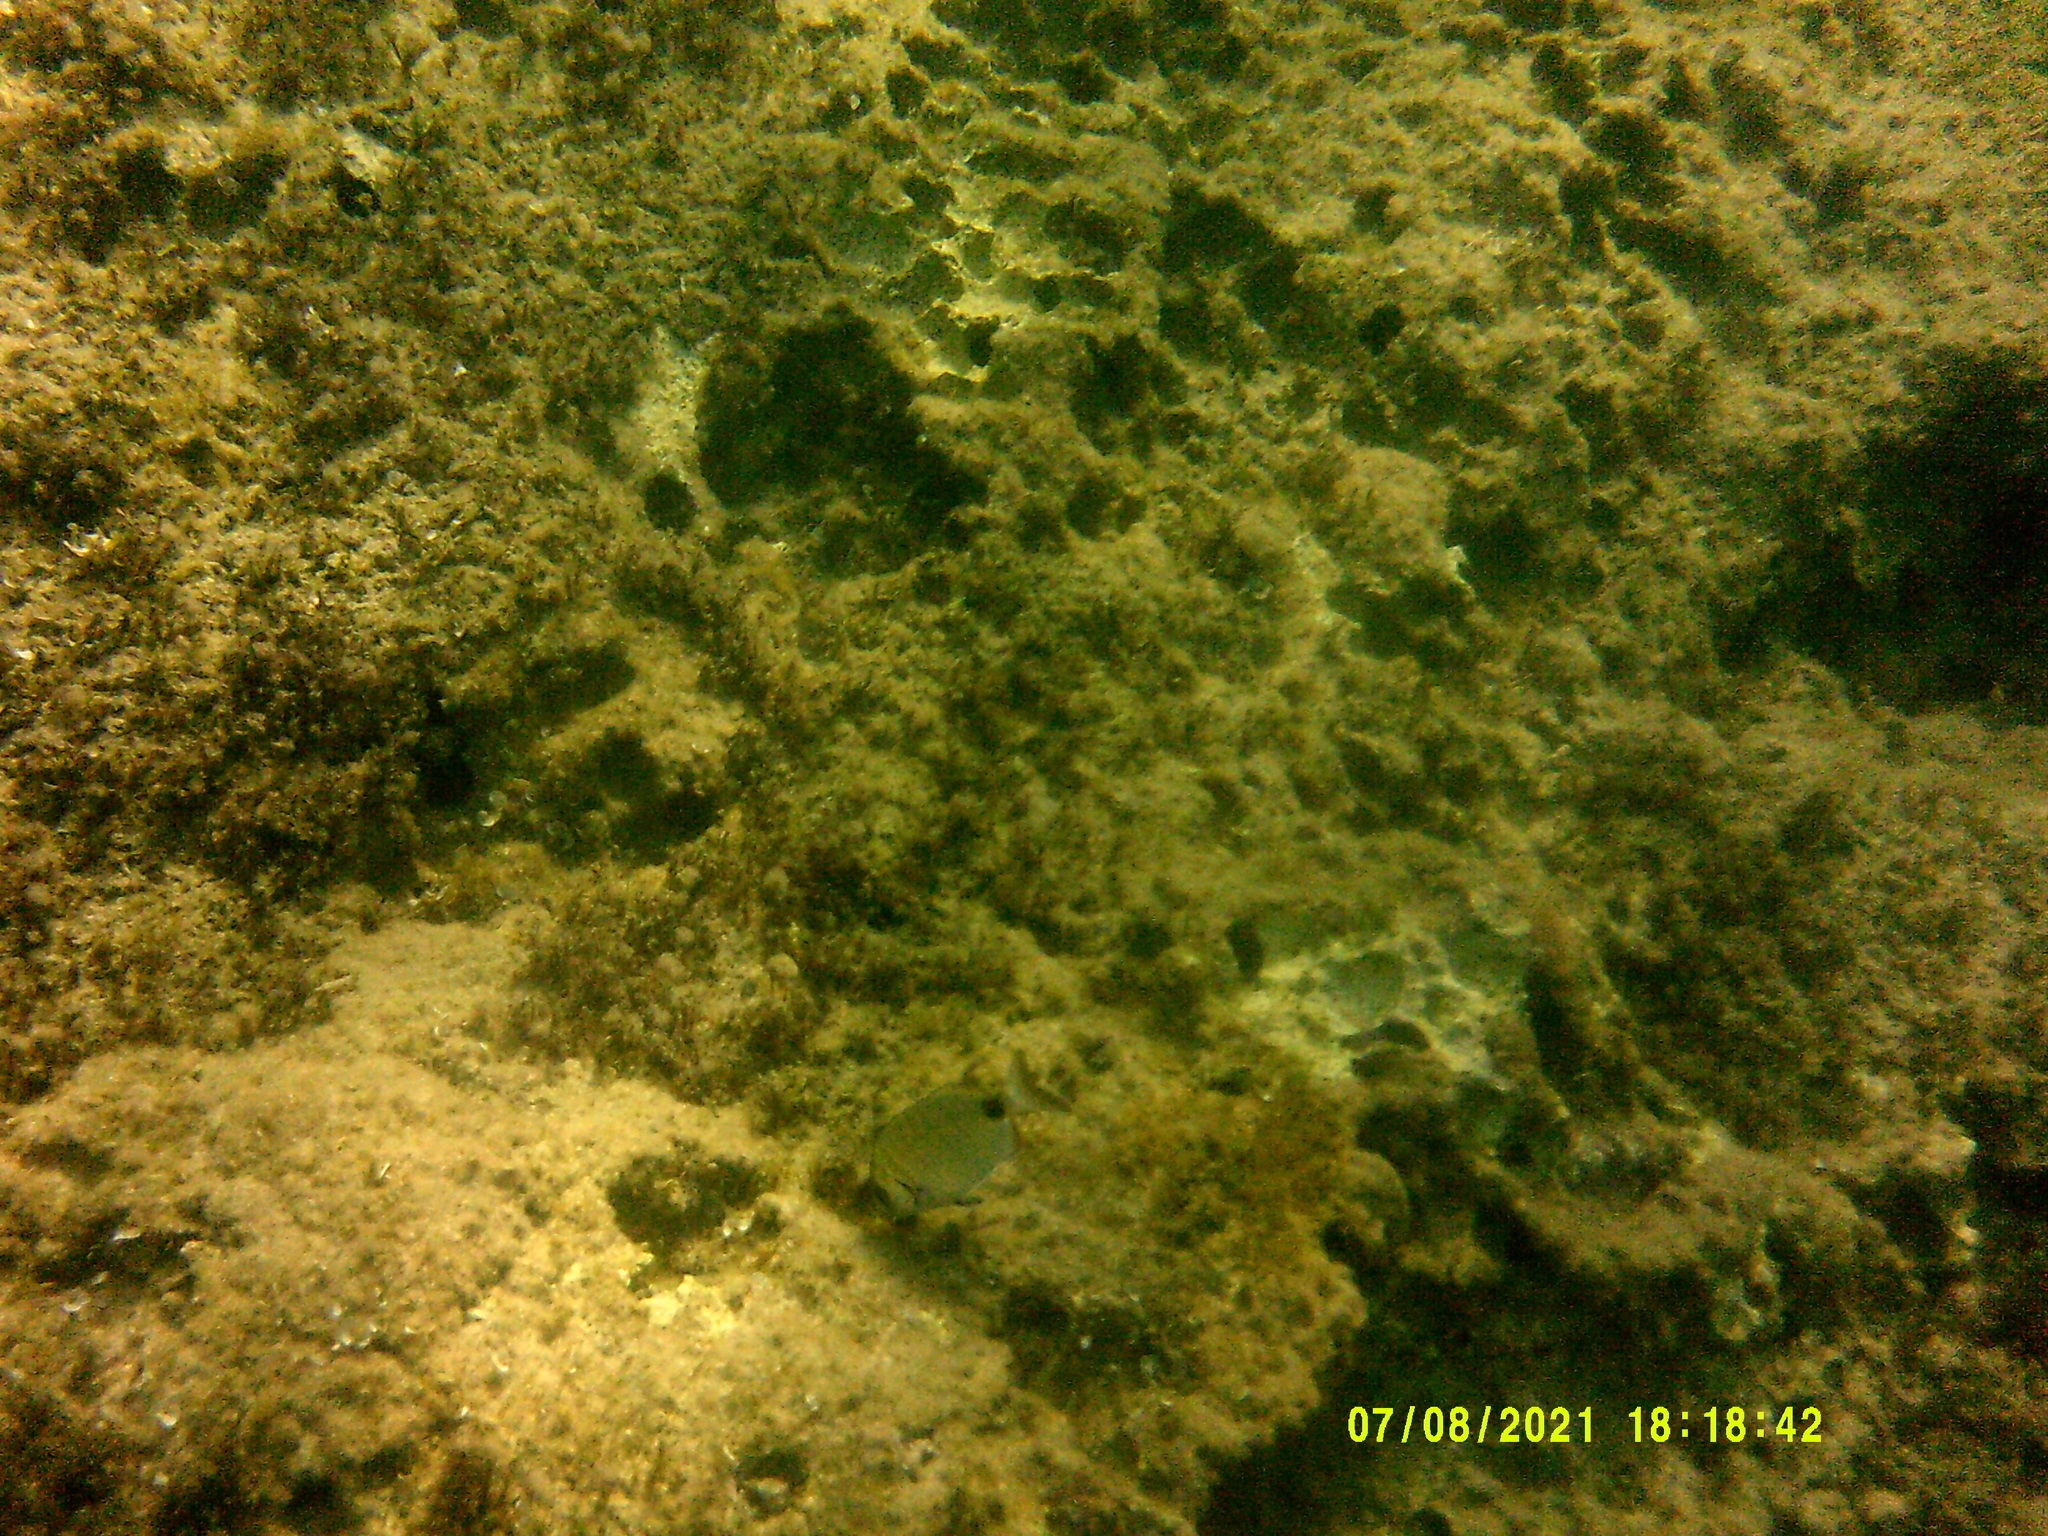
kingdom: Animalia
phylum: Chordata
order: Perciformes
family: Sparidae
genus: Diplodus
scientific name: Diplodus sargus
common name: White seabream
